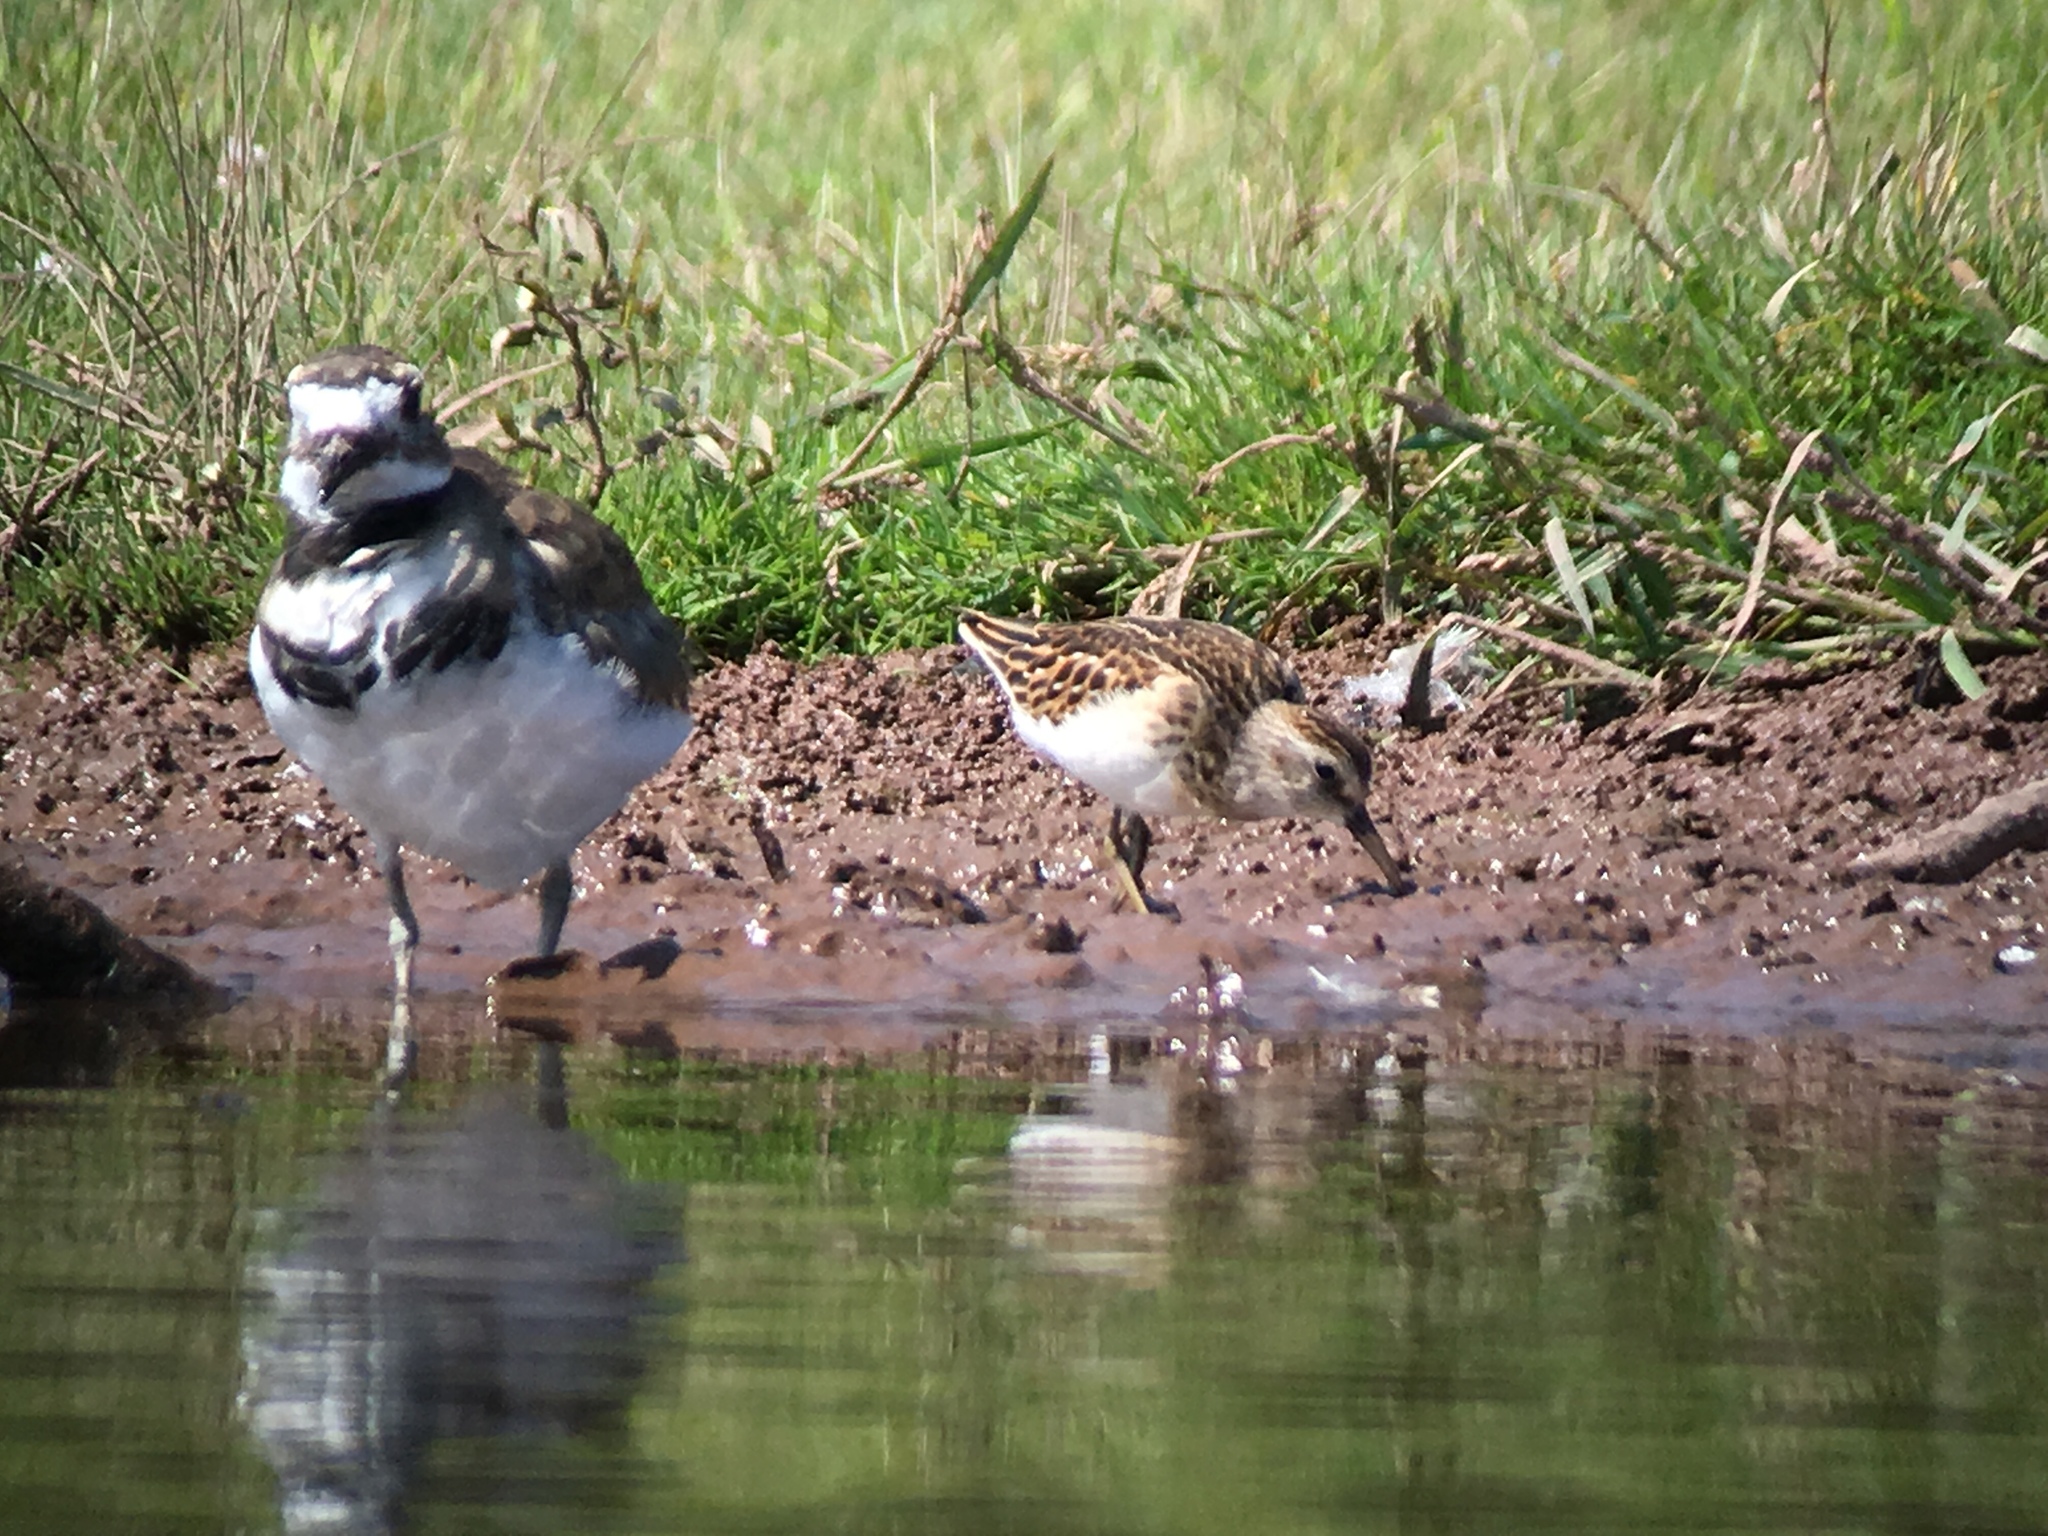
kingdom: Animalia
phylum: Chordata
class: Aves
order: Charadriiformes
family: Charadriidae
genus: Charadrius
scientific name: Charadrius vociferus
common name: Killdeer
